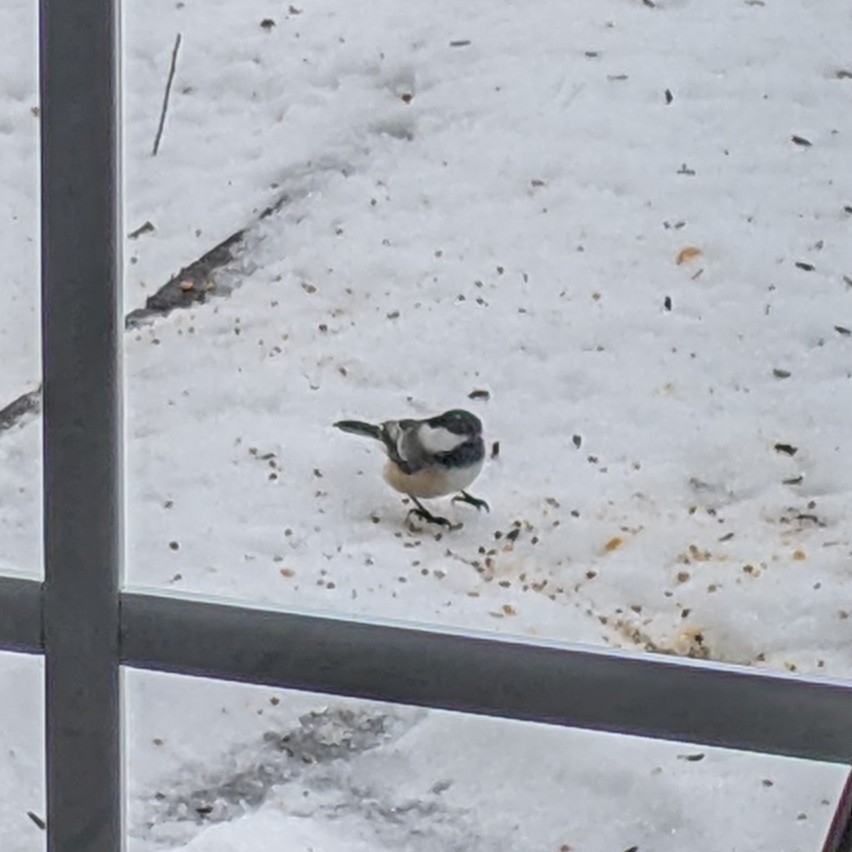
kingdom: Animalia
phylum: Chordata
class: Aves
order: Passeriformes
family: Paridae
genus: Poecile
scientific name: Poecile atricapillus
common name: Black-capped chickadee
